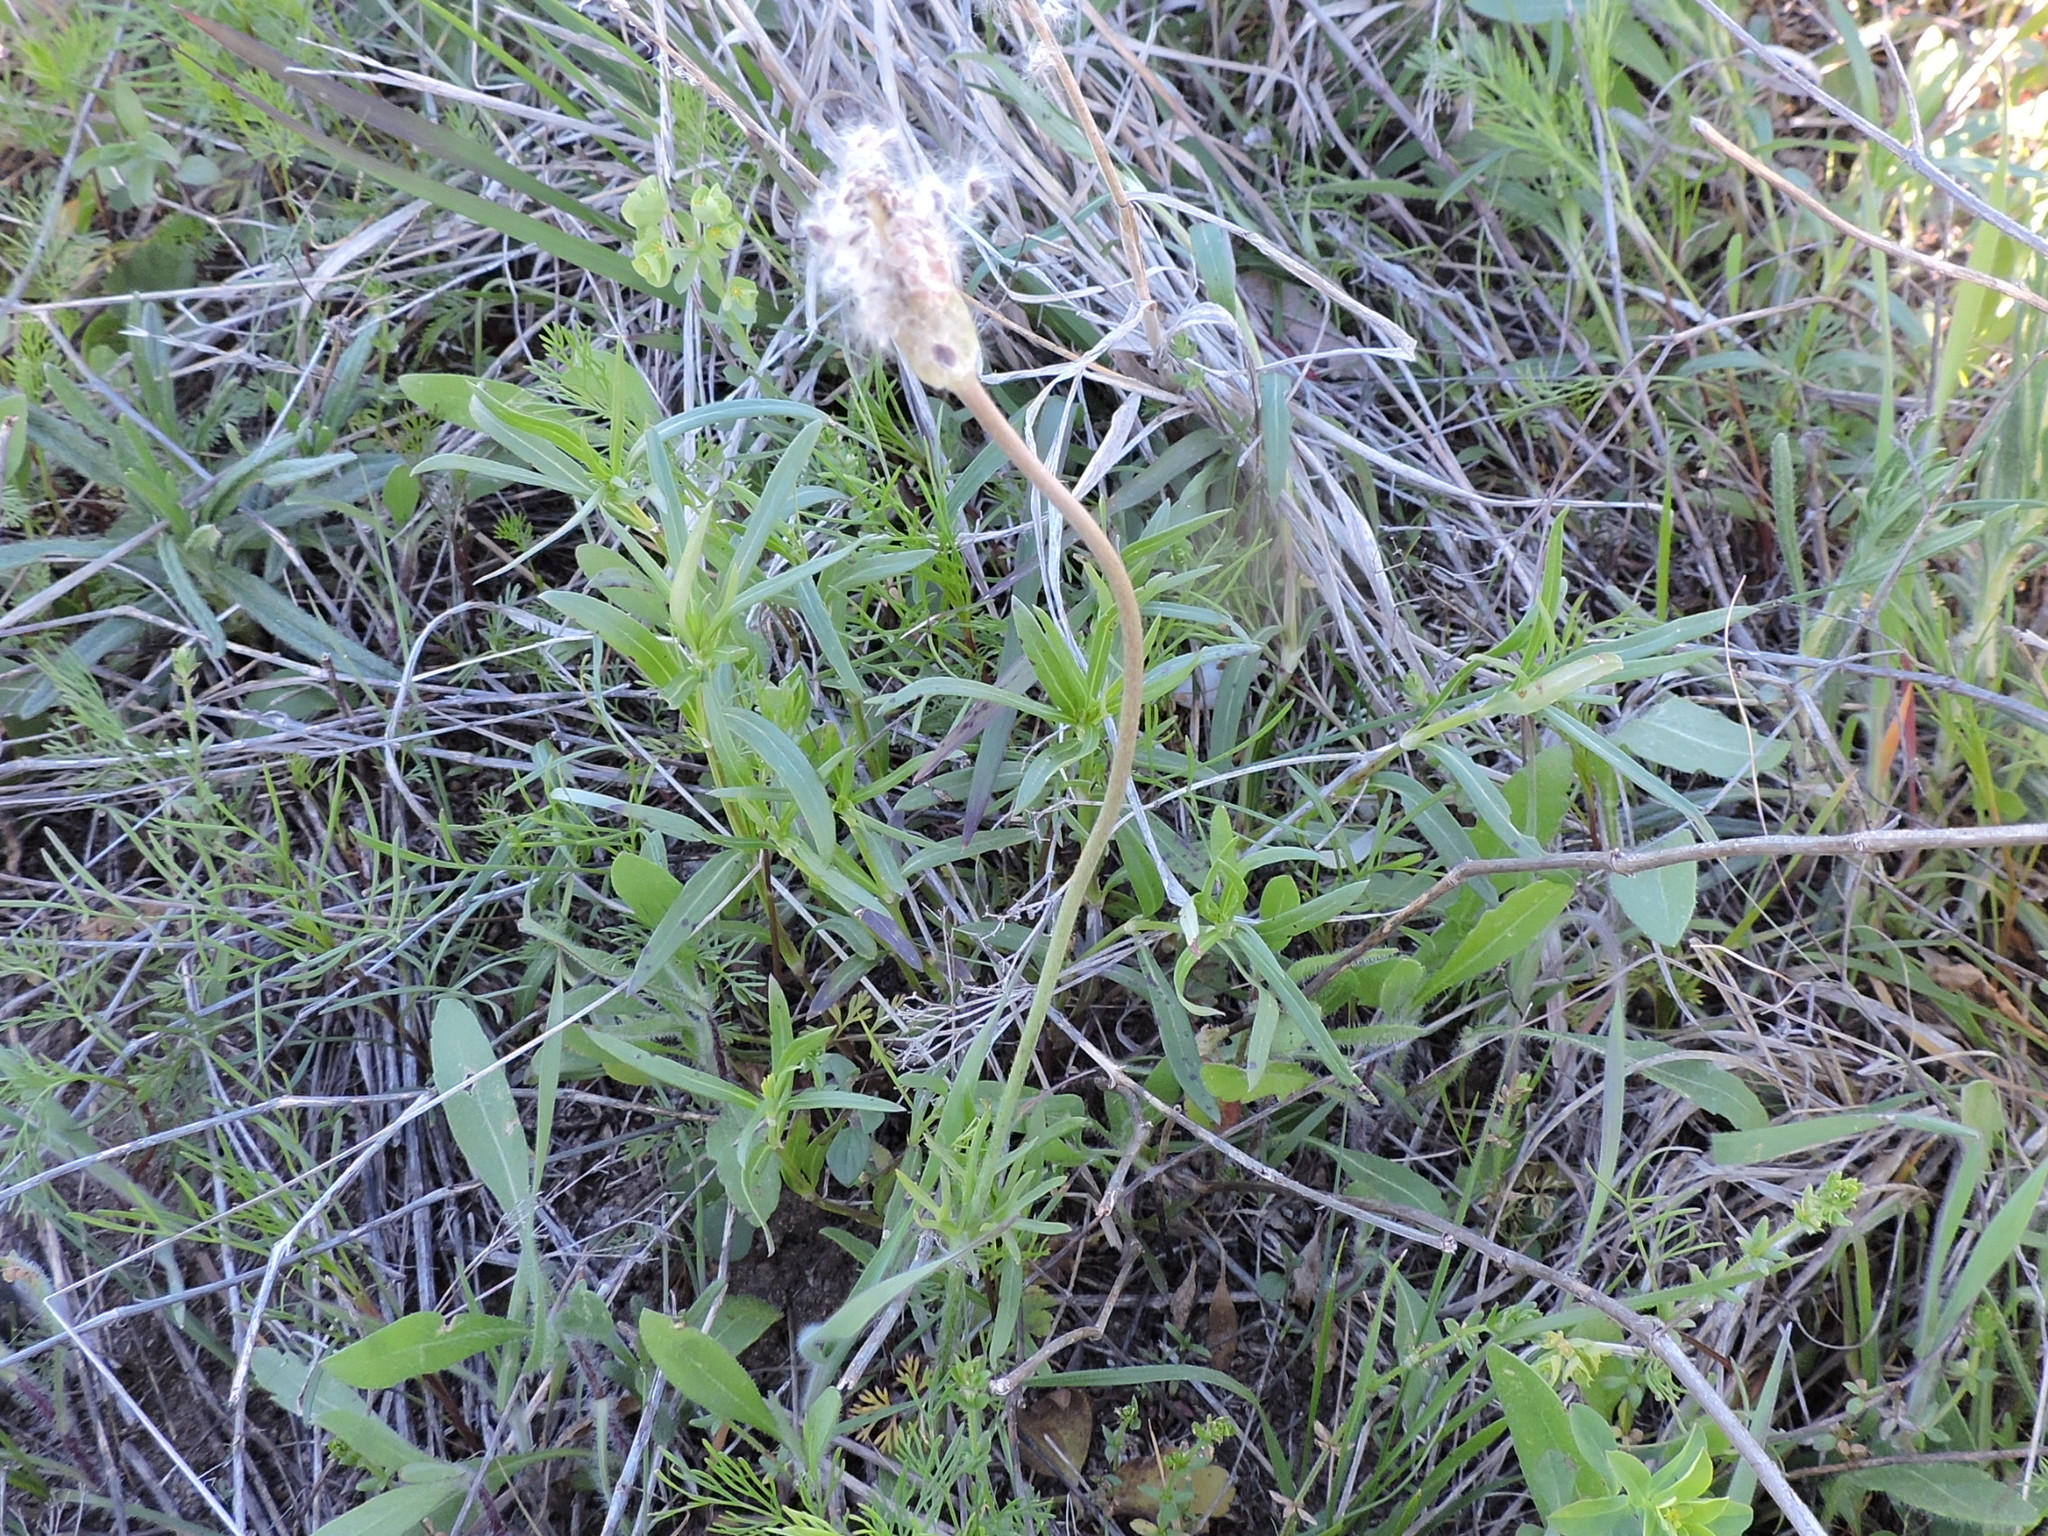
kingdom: Plantae
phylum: Tracheophyta
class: Magnoliopsida
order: Ranunculales
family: Ranunculaceae
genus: Anemone
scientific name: Anemone berlandieri
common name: Ten-petal anemone
